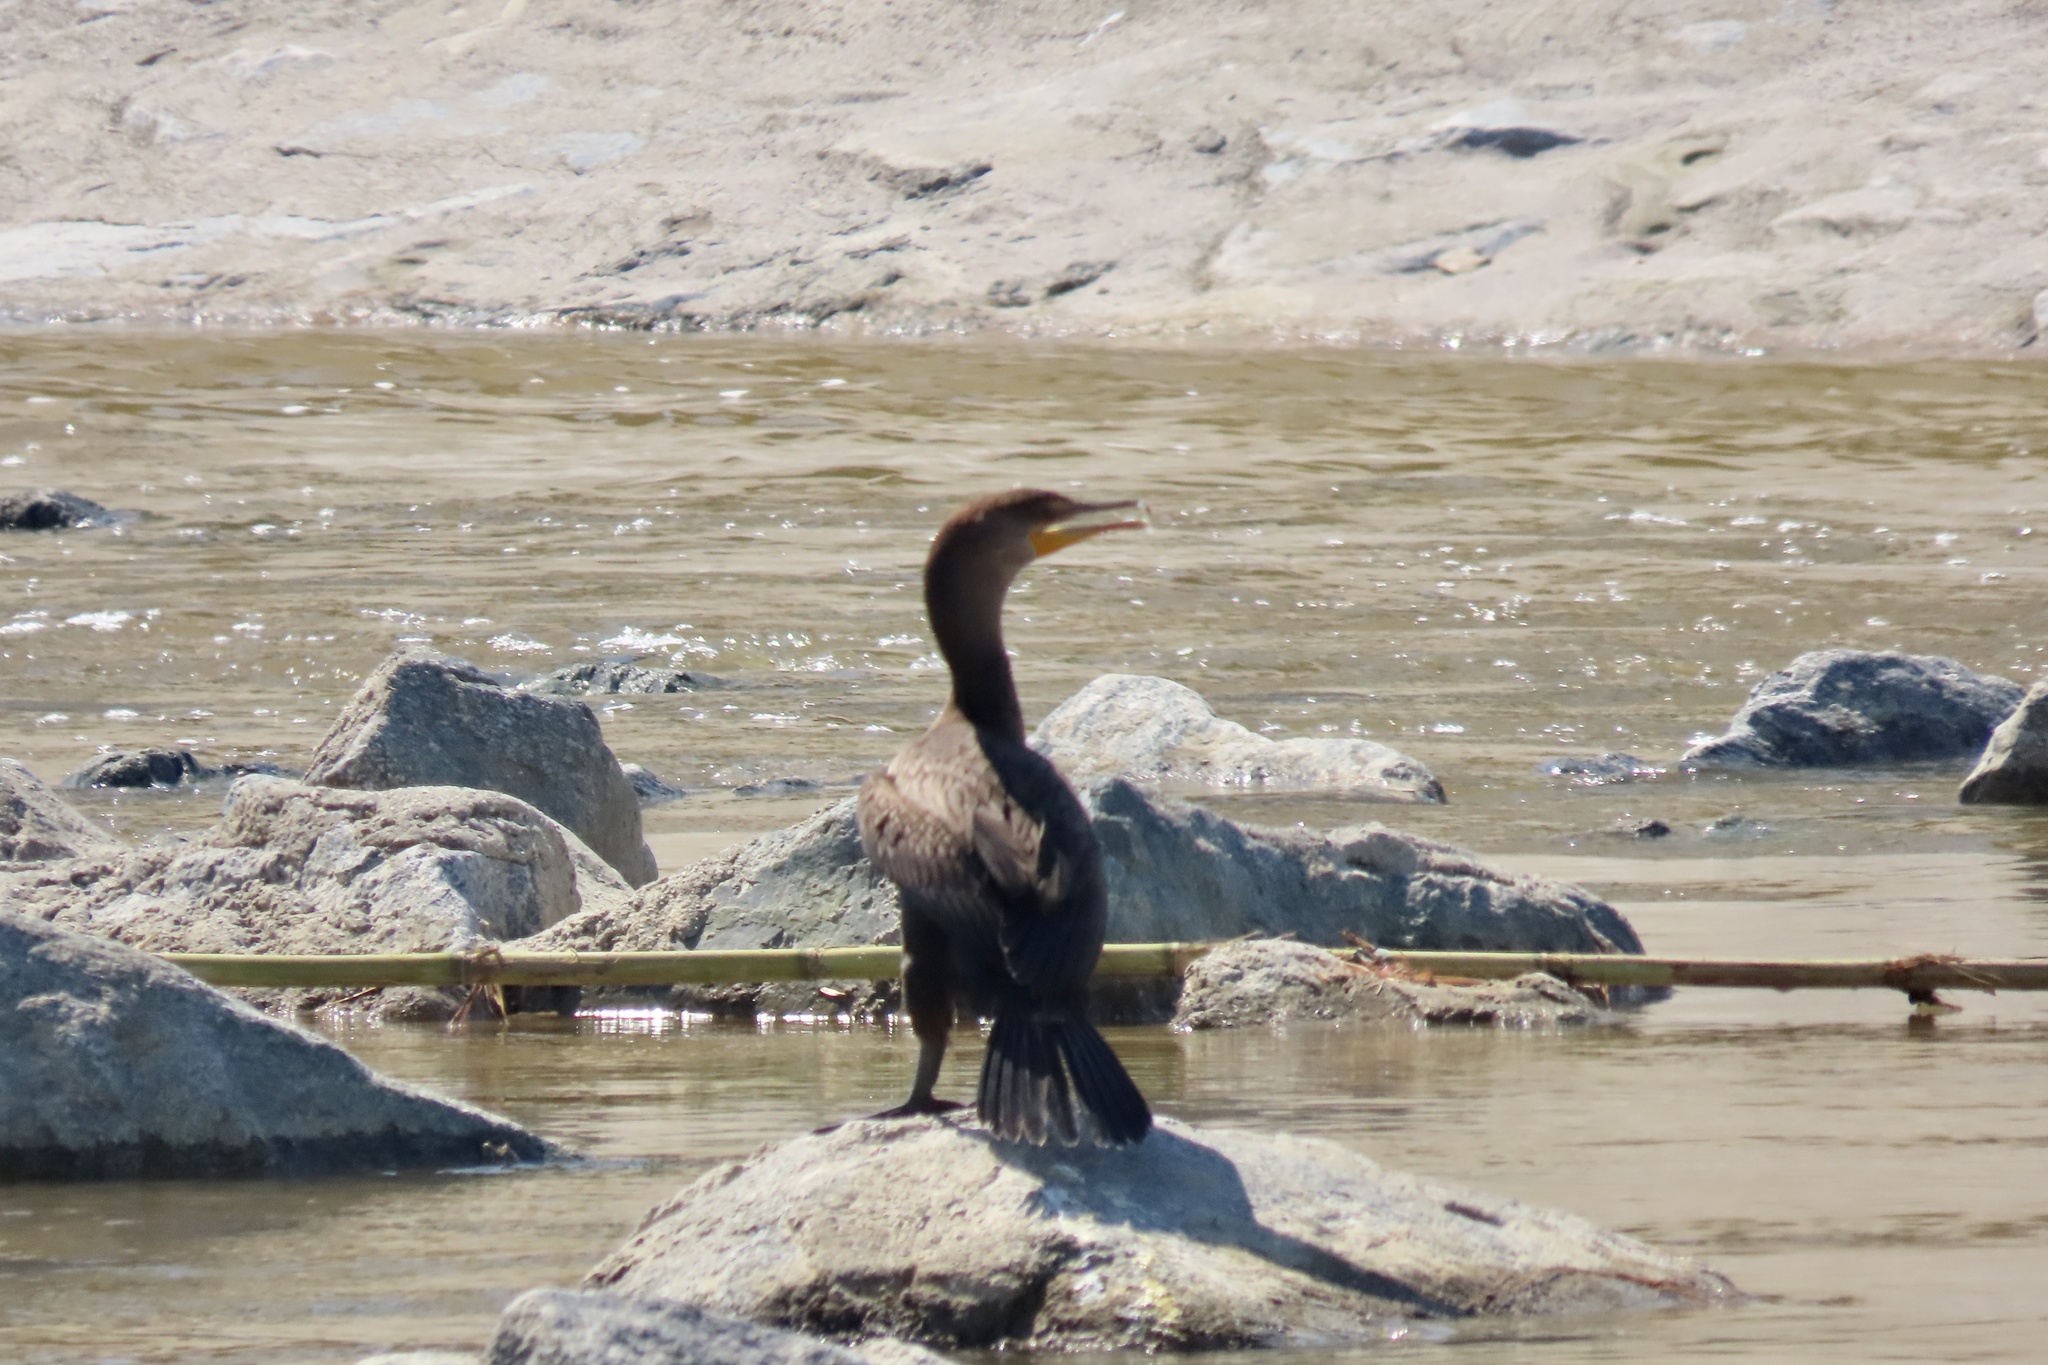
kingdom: Animalia
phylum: Chordata
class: Aves
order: Suliformes
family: Phalacrocoracidae
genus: Phalacrocorax
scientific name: Phalacrocorax auritus
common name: Double-crested cormorant
